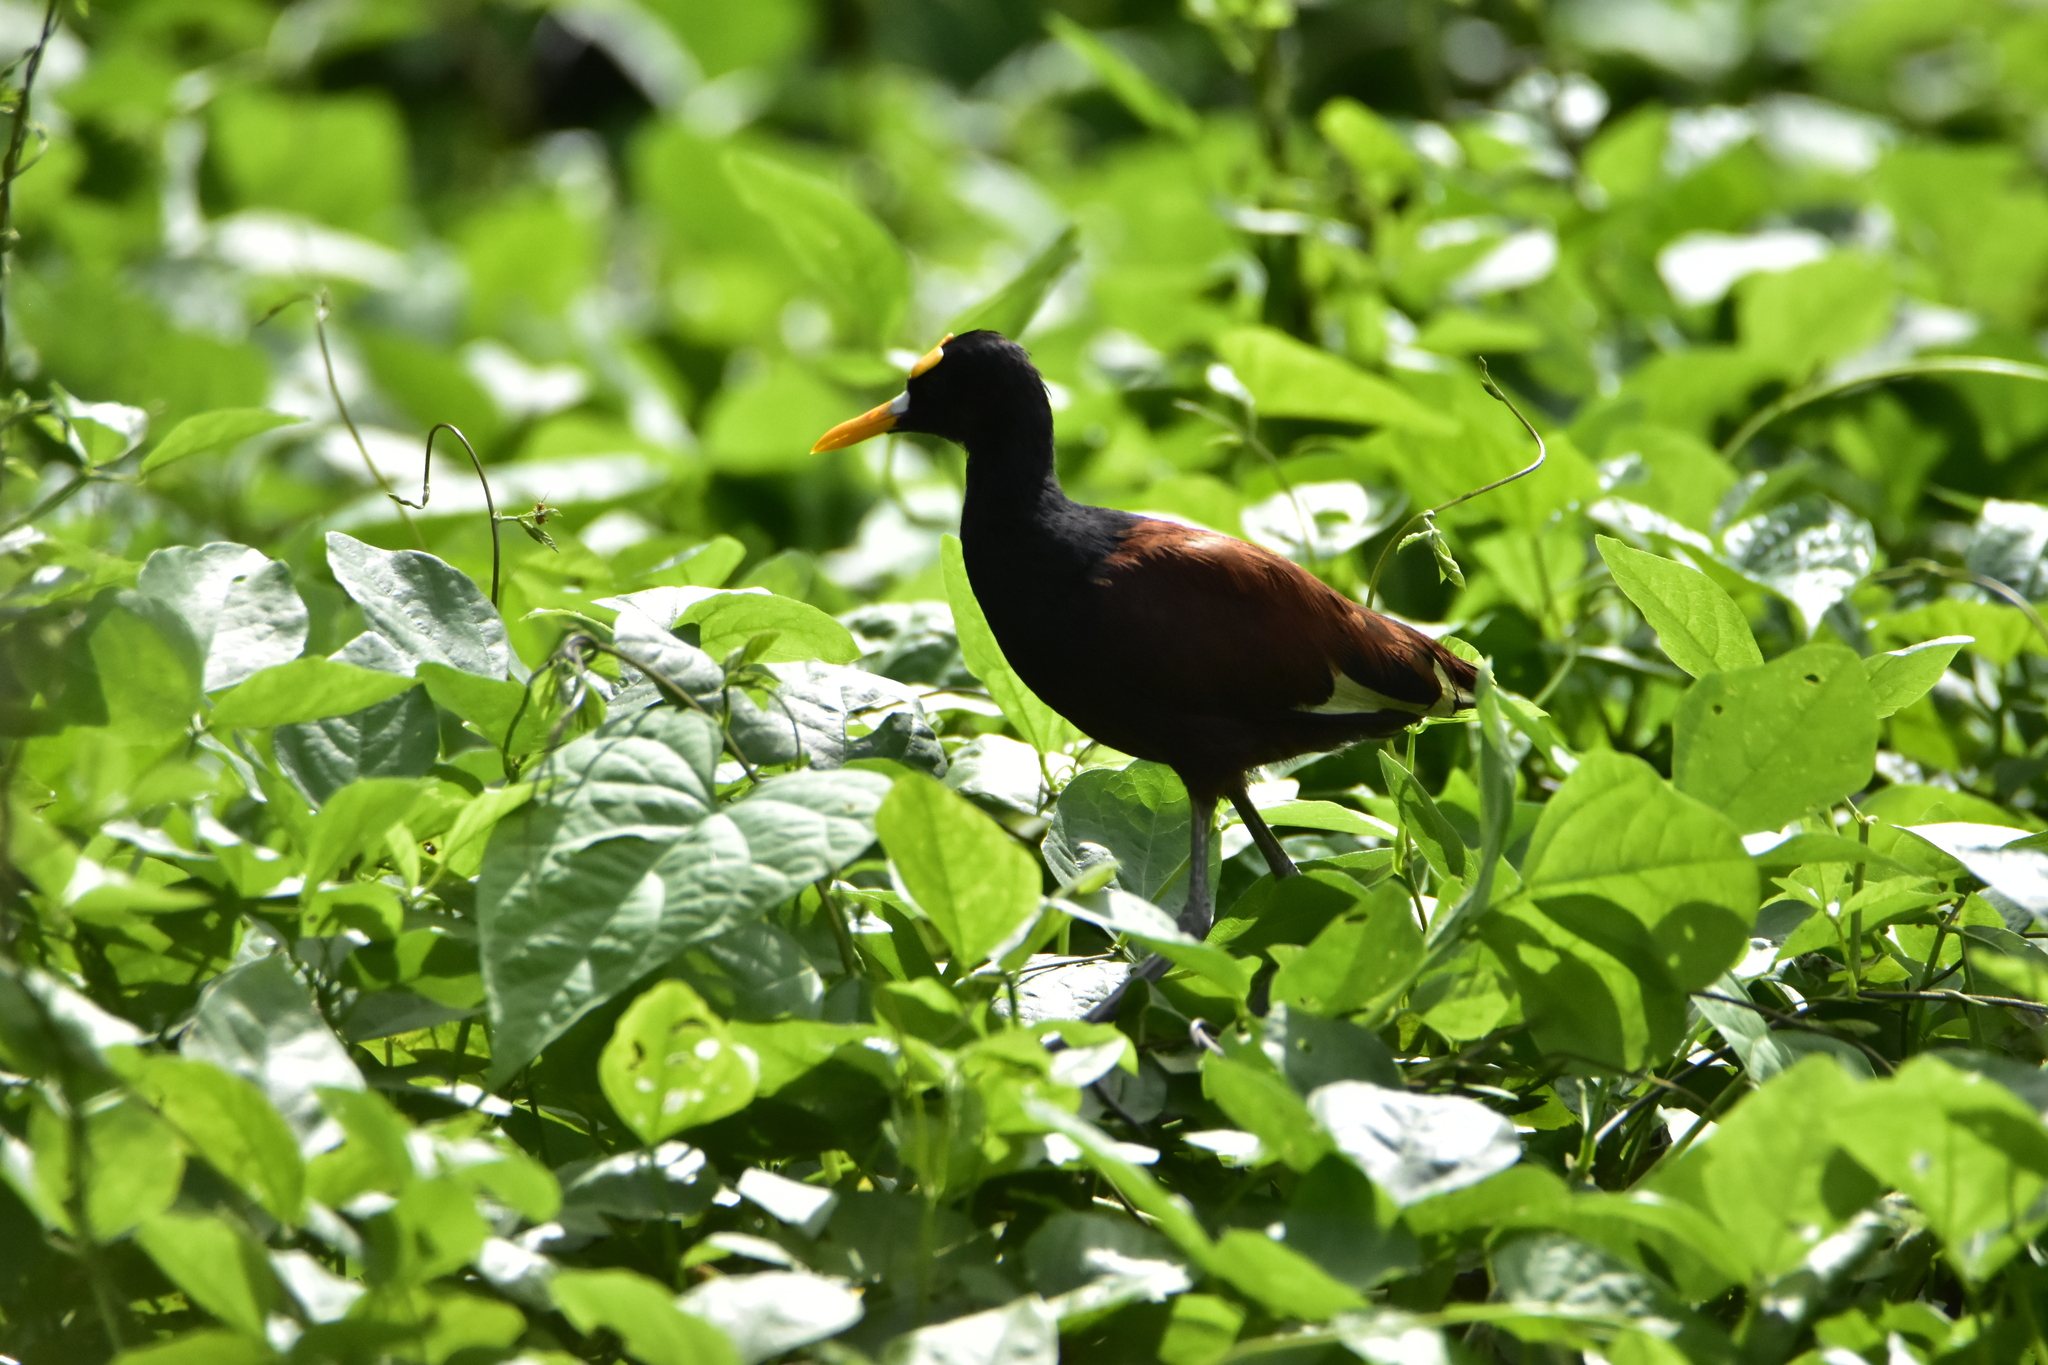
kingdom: Animalia
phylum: Chordata
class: Aves
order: Charadriiformes
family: Jacanidae
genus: Jacana
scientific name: Jacana spinosa
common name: Northern jacana
